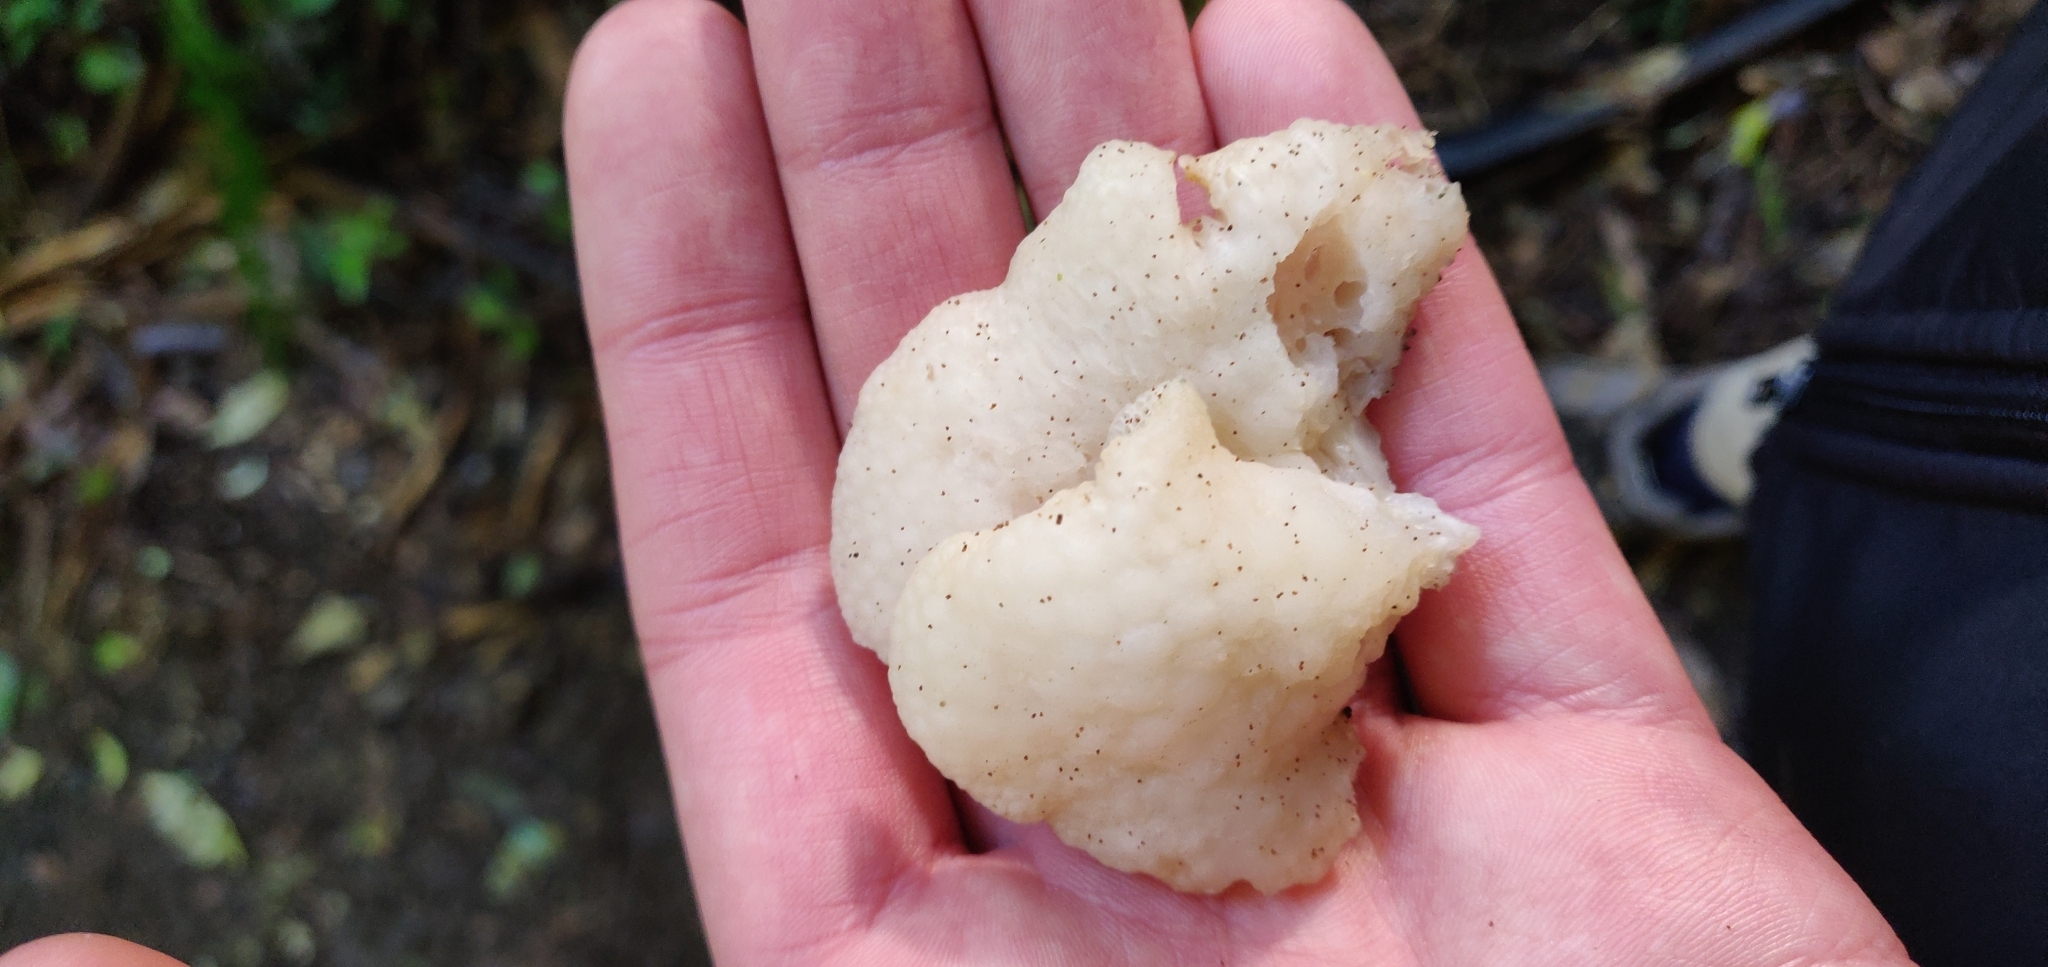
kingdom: Fungi
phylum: Basidiomycota
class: Agaricomycetes
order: Agaricales
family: Mycenaceae
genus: Favolaschia
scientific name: Favolaschia pustulosa
